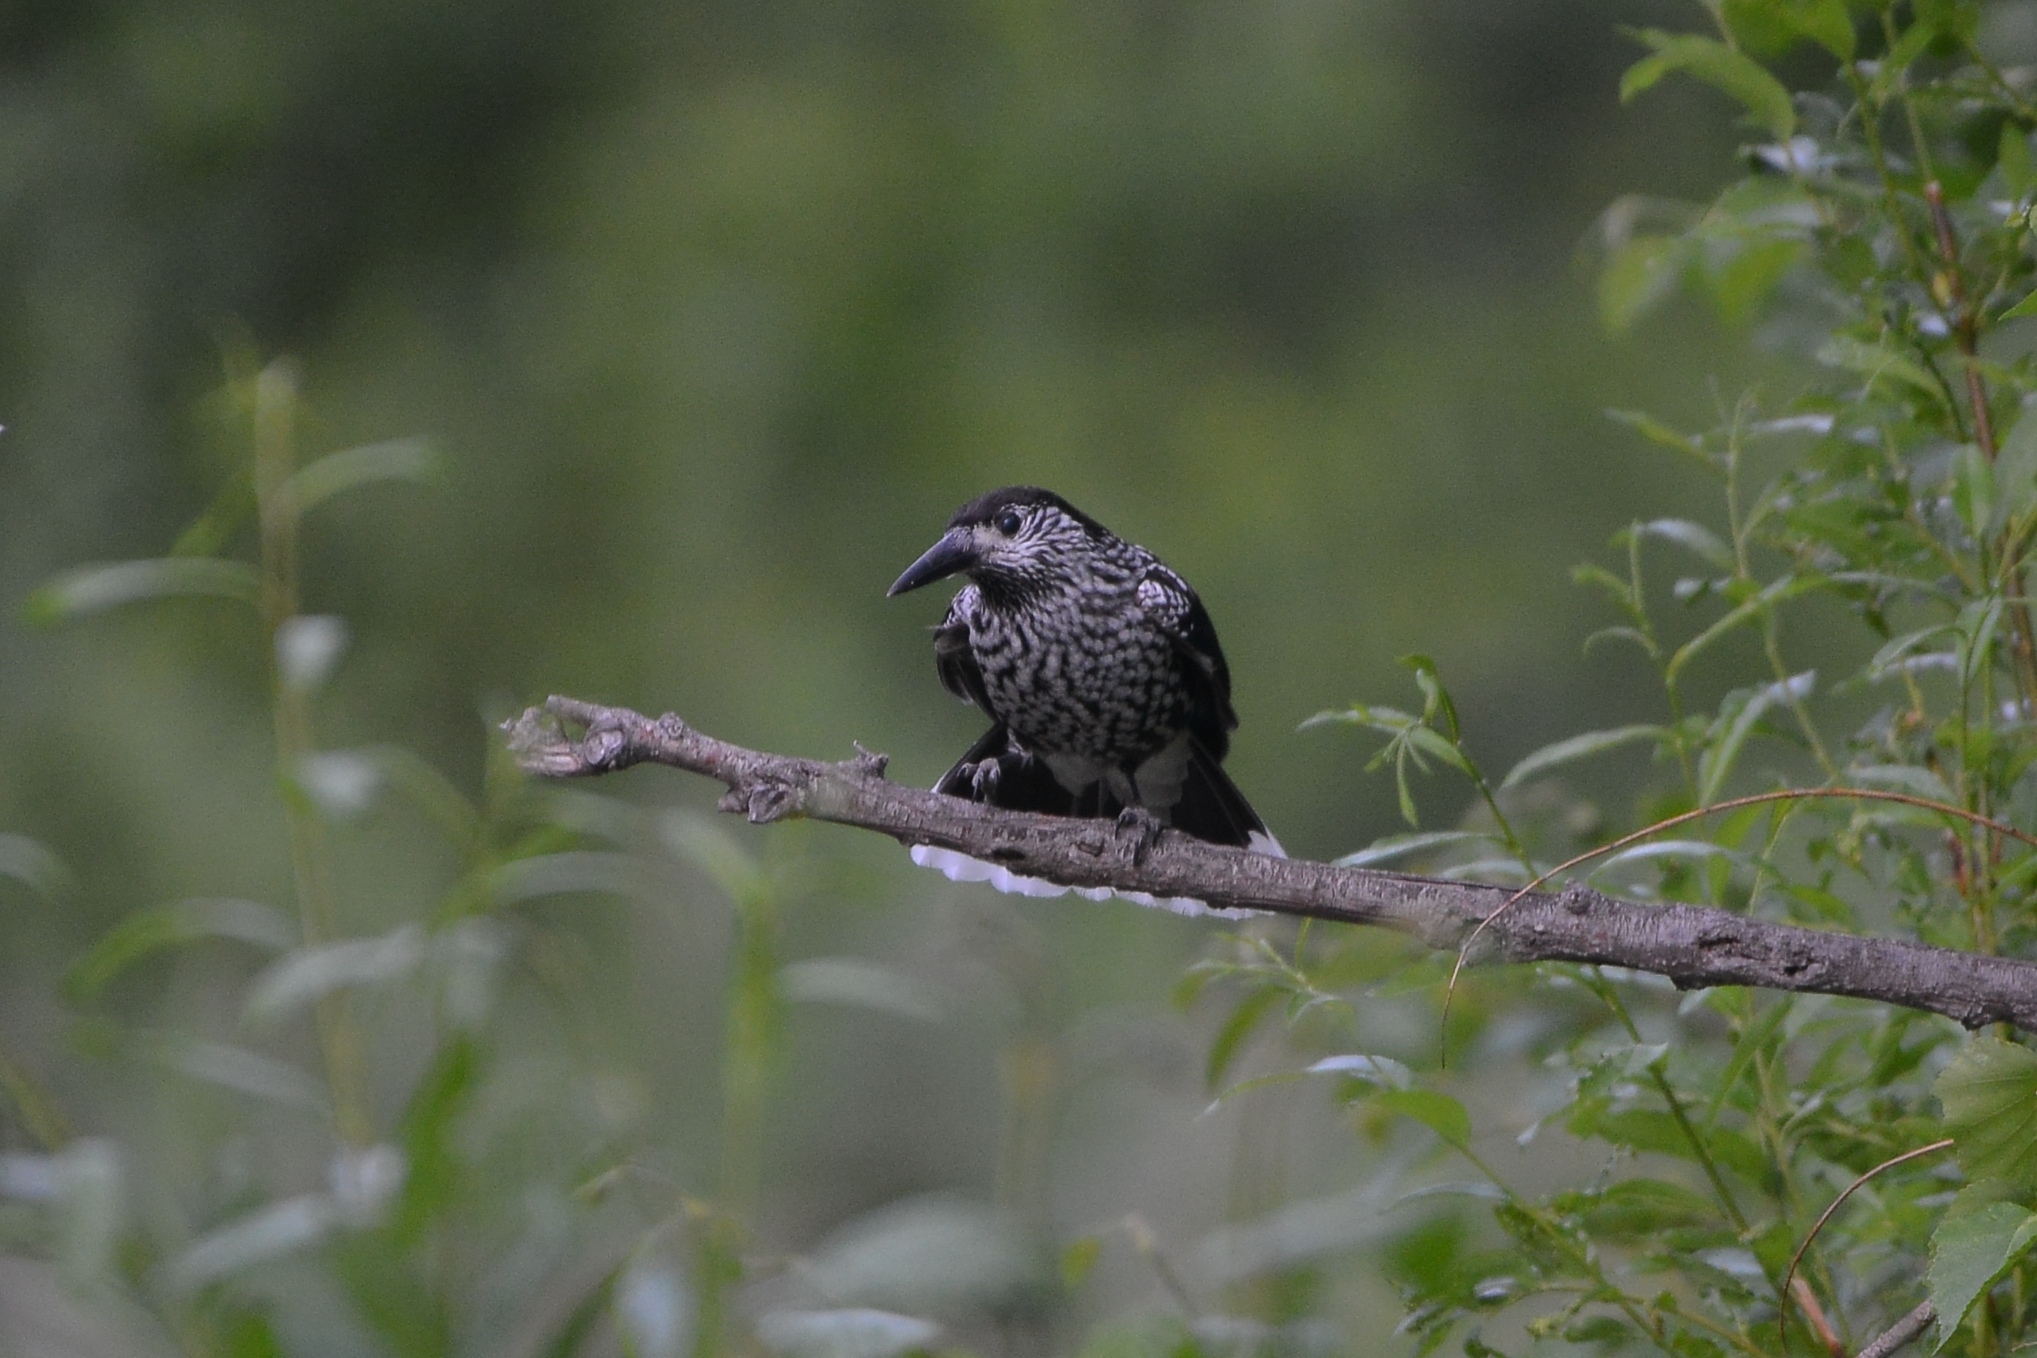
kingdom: Animalia
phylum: Chordata
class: Aves
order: Passeriformes
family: Corvidae
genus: Nucifraga
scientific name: Nucifraga caryocatactes
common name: Spotted nutcracker
